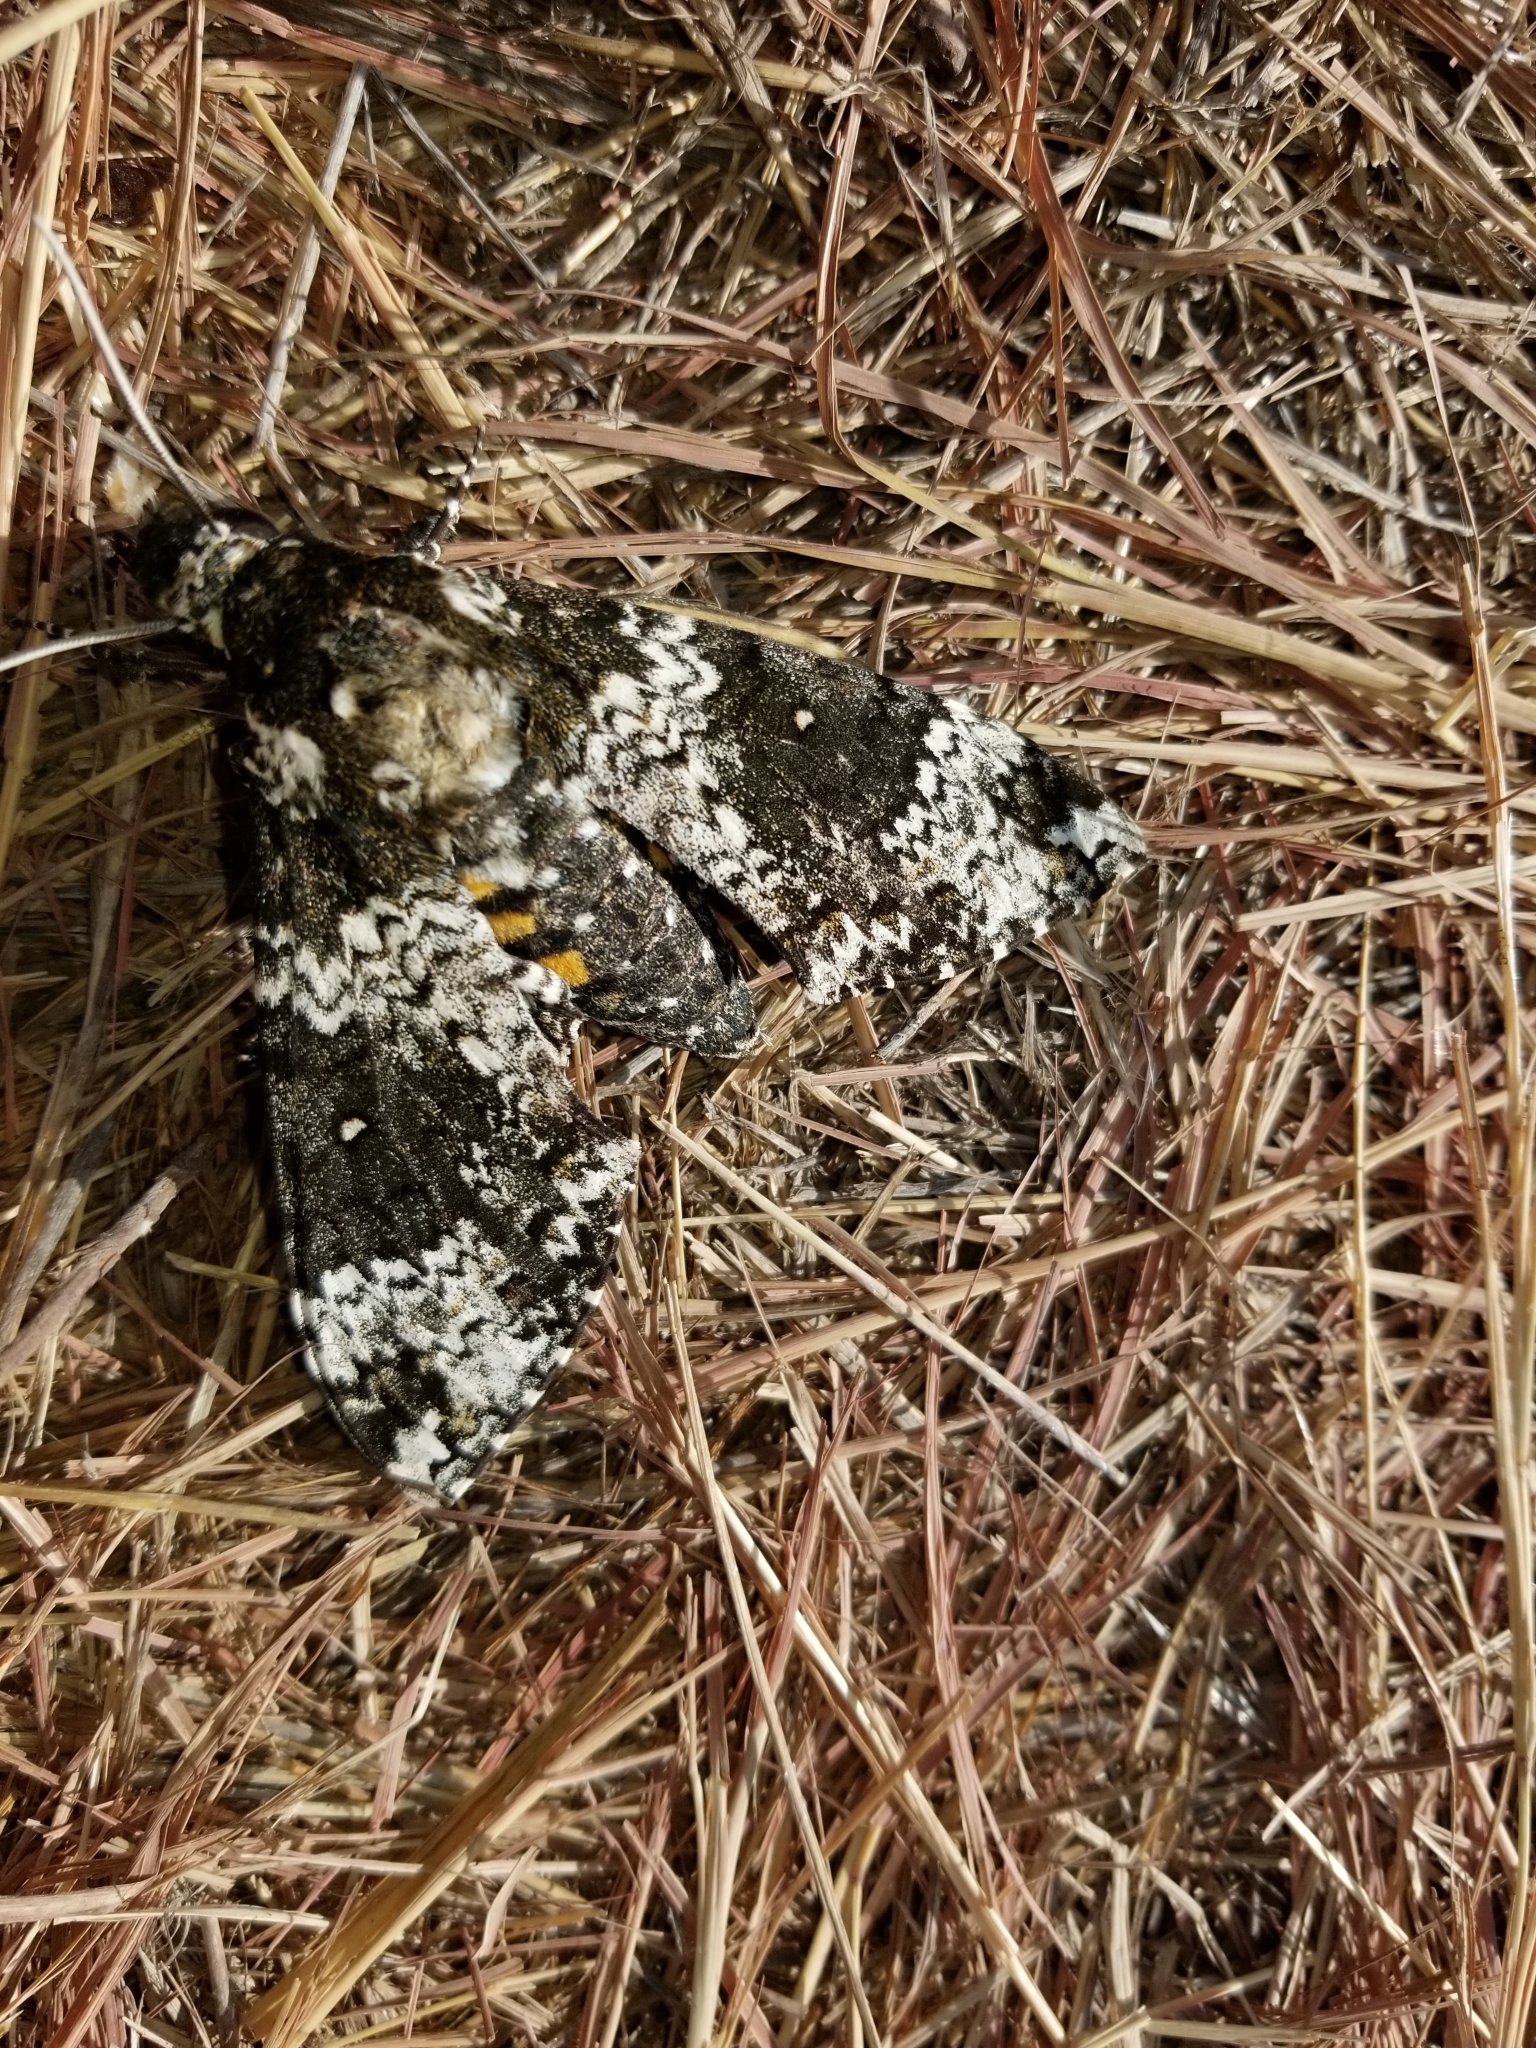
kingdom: Animalia
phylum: Arthropoda
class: Insecta
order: Lepidoptera
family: Sphingidae
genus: Manduca
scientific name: Manduca rustica
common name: Rustic sphinx
